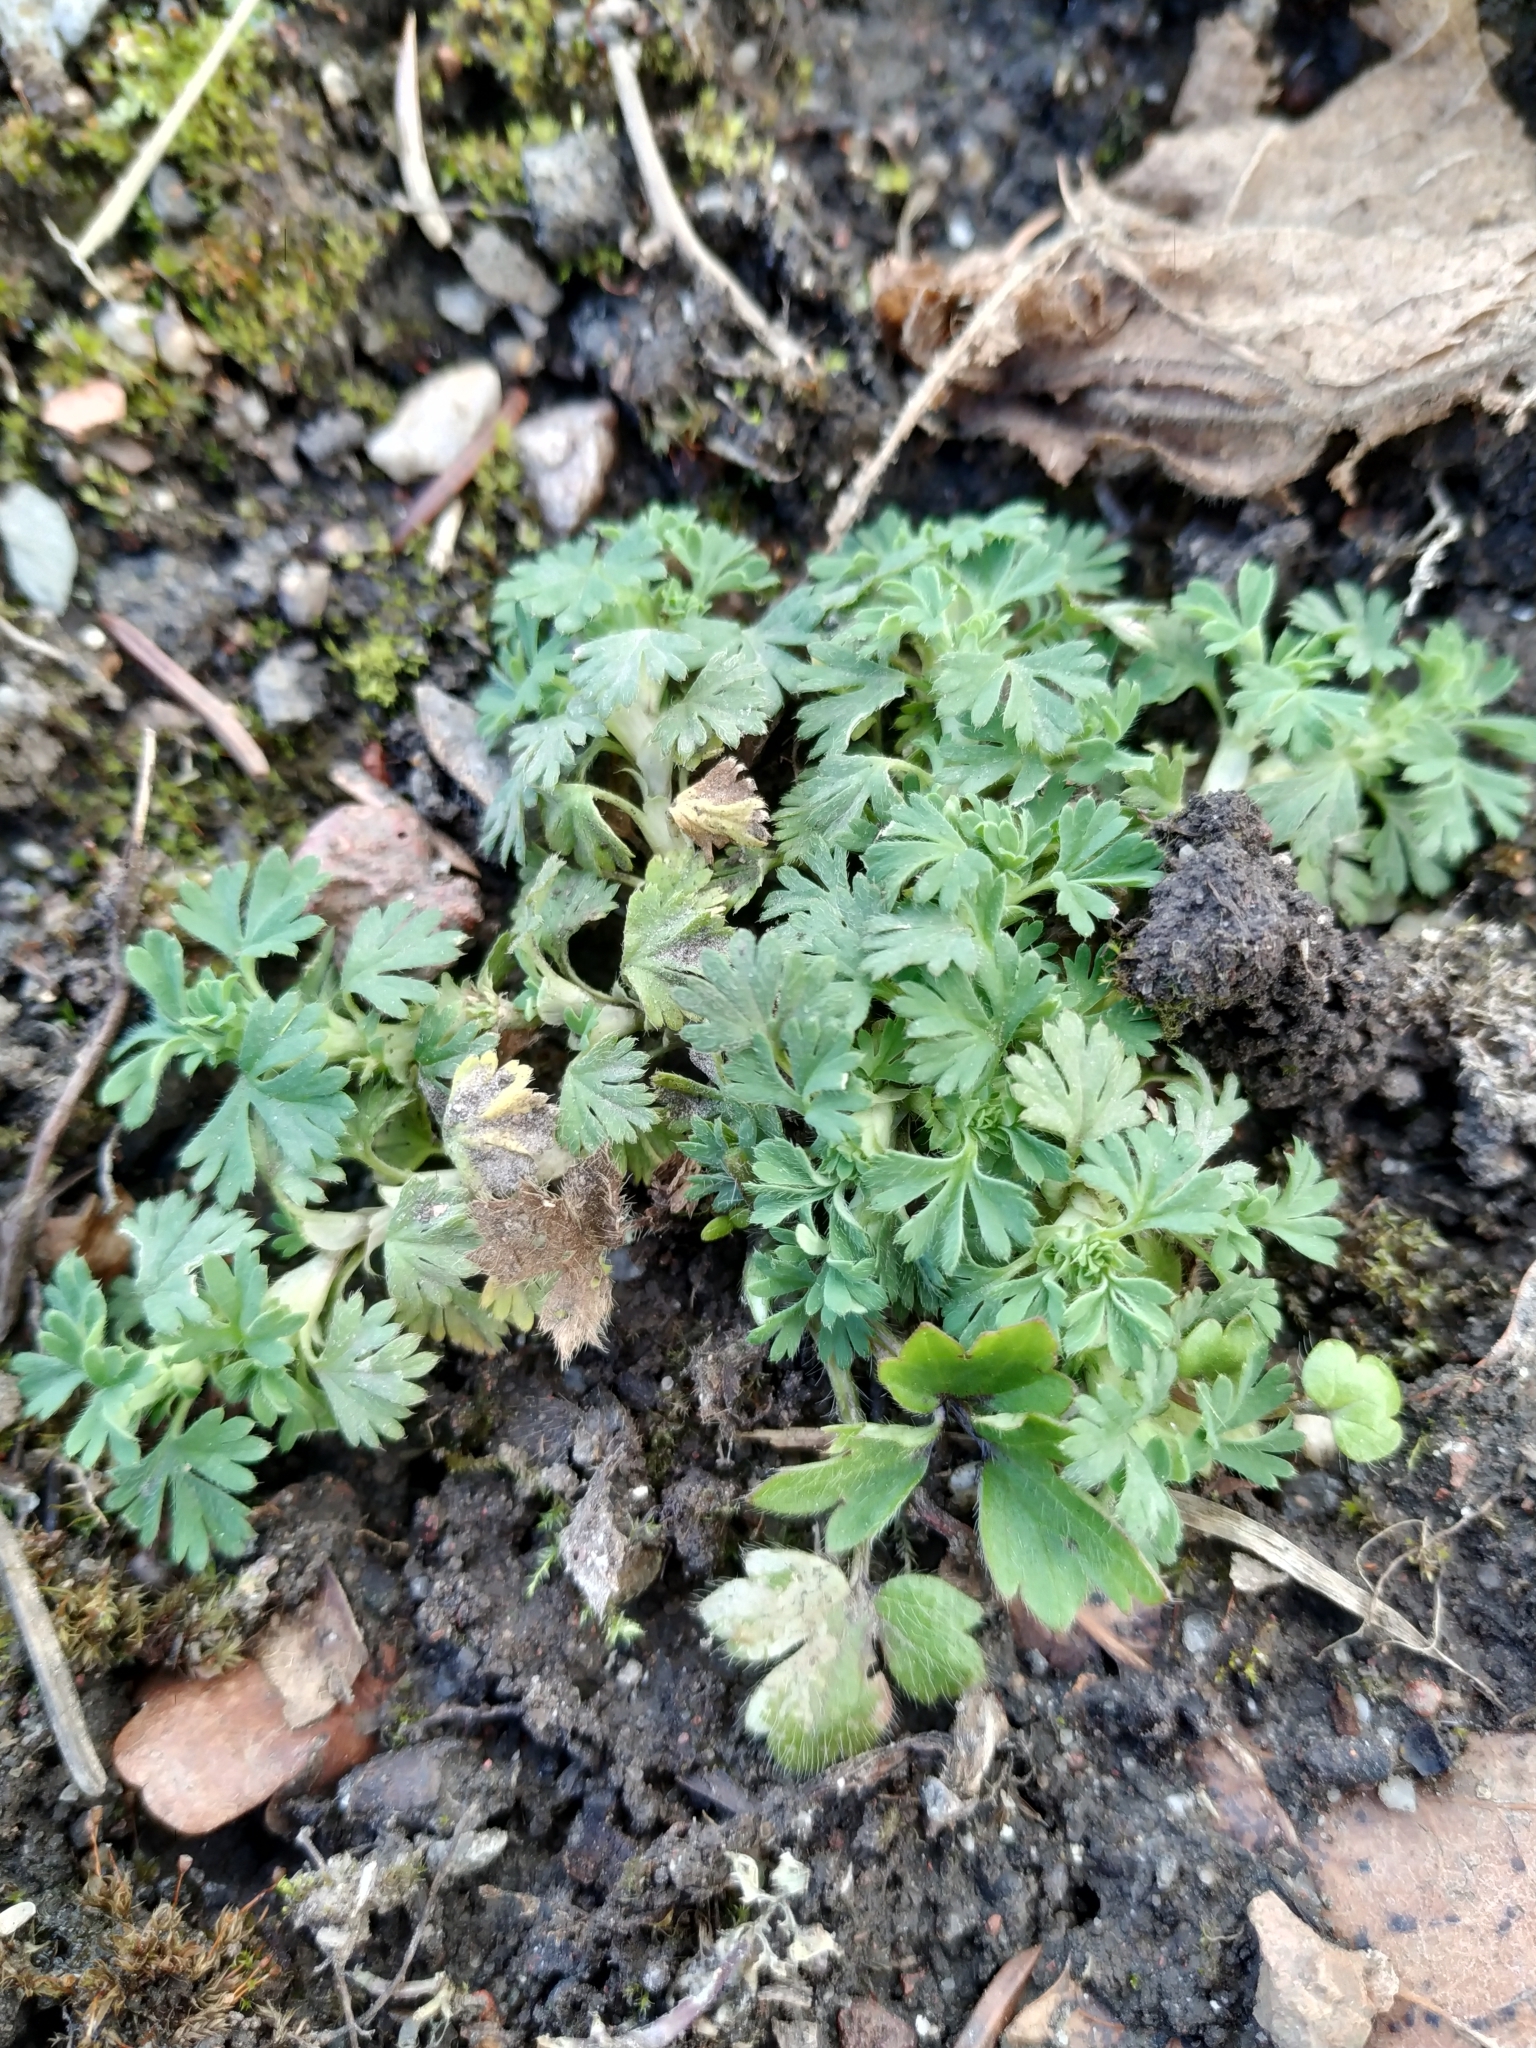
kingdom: Plantae
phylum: Tracheophyta
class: Magnoliopsida
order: Rosales
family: Rosaceae
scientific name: Rosaceae
